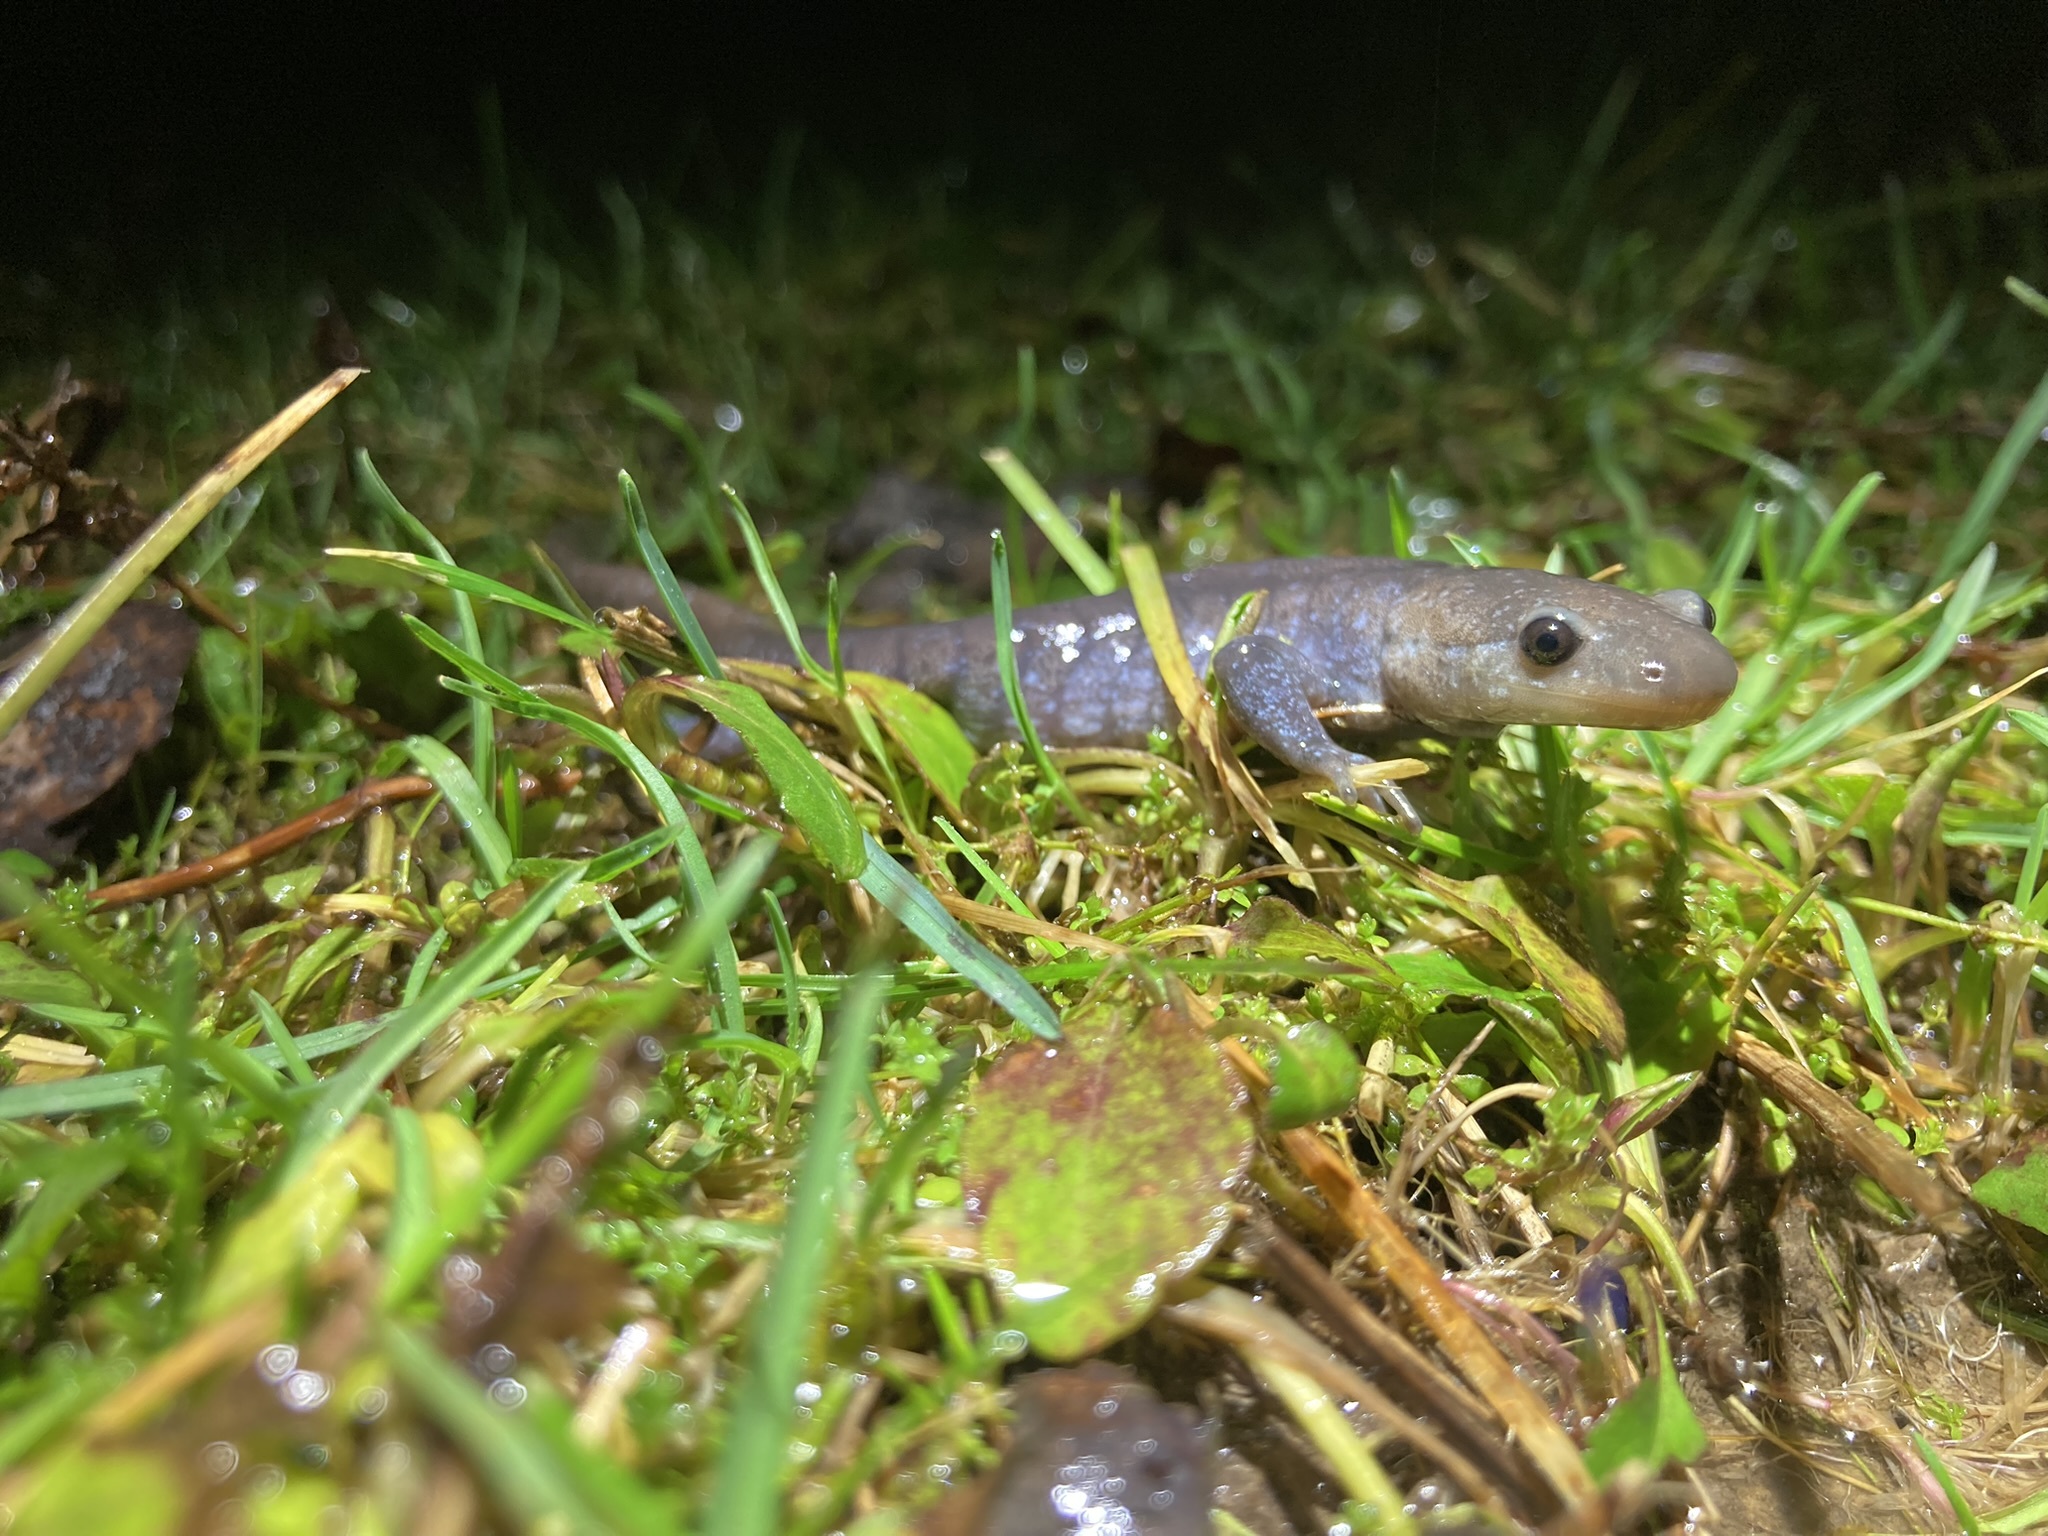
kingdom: Animalia
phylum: Chordata
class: Amphibia
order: Caudata
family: Ambystomatidae
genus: Ambystoma
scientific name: Ambystoma jeffersonianum
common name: Jefferson salamander
